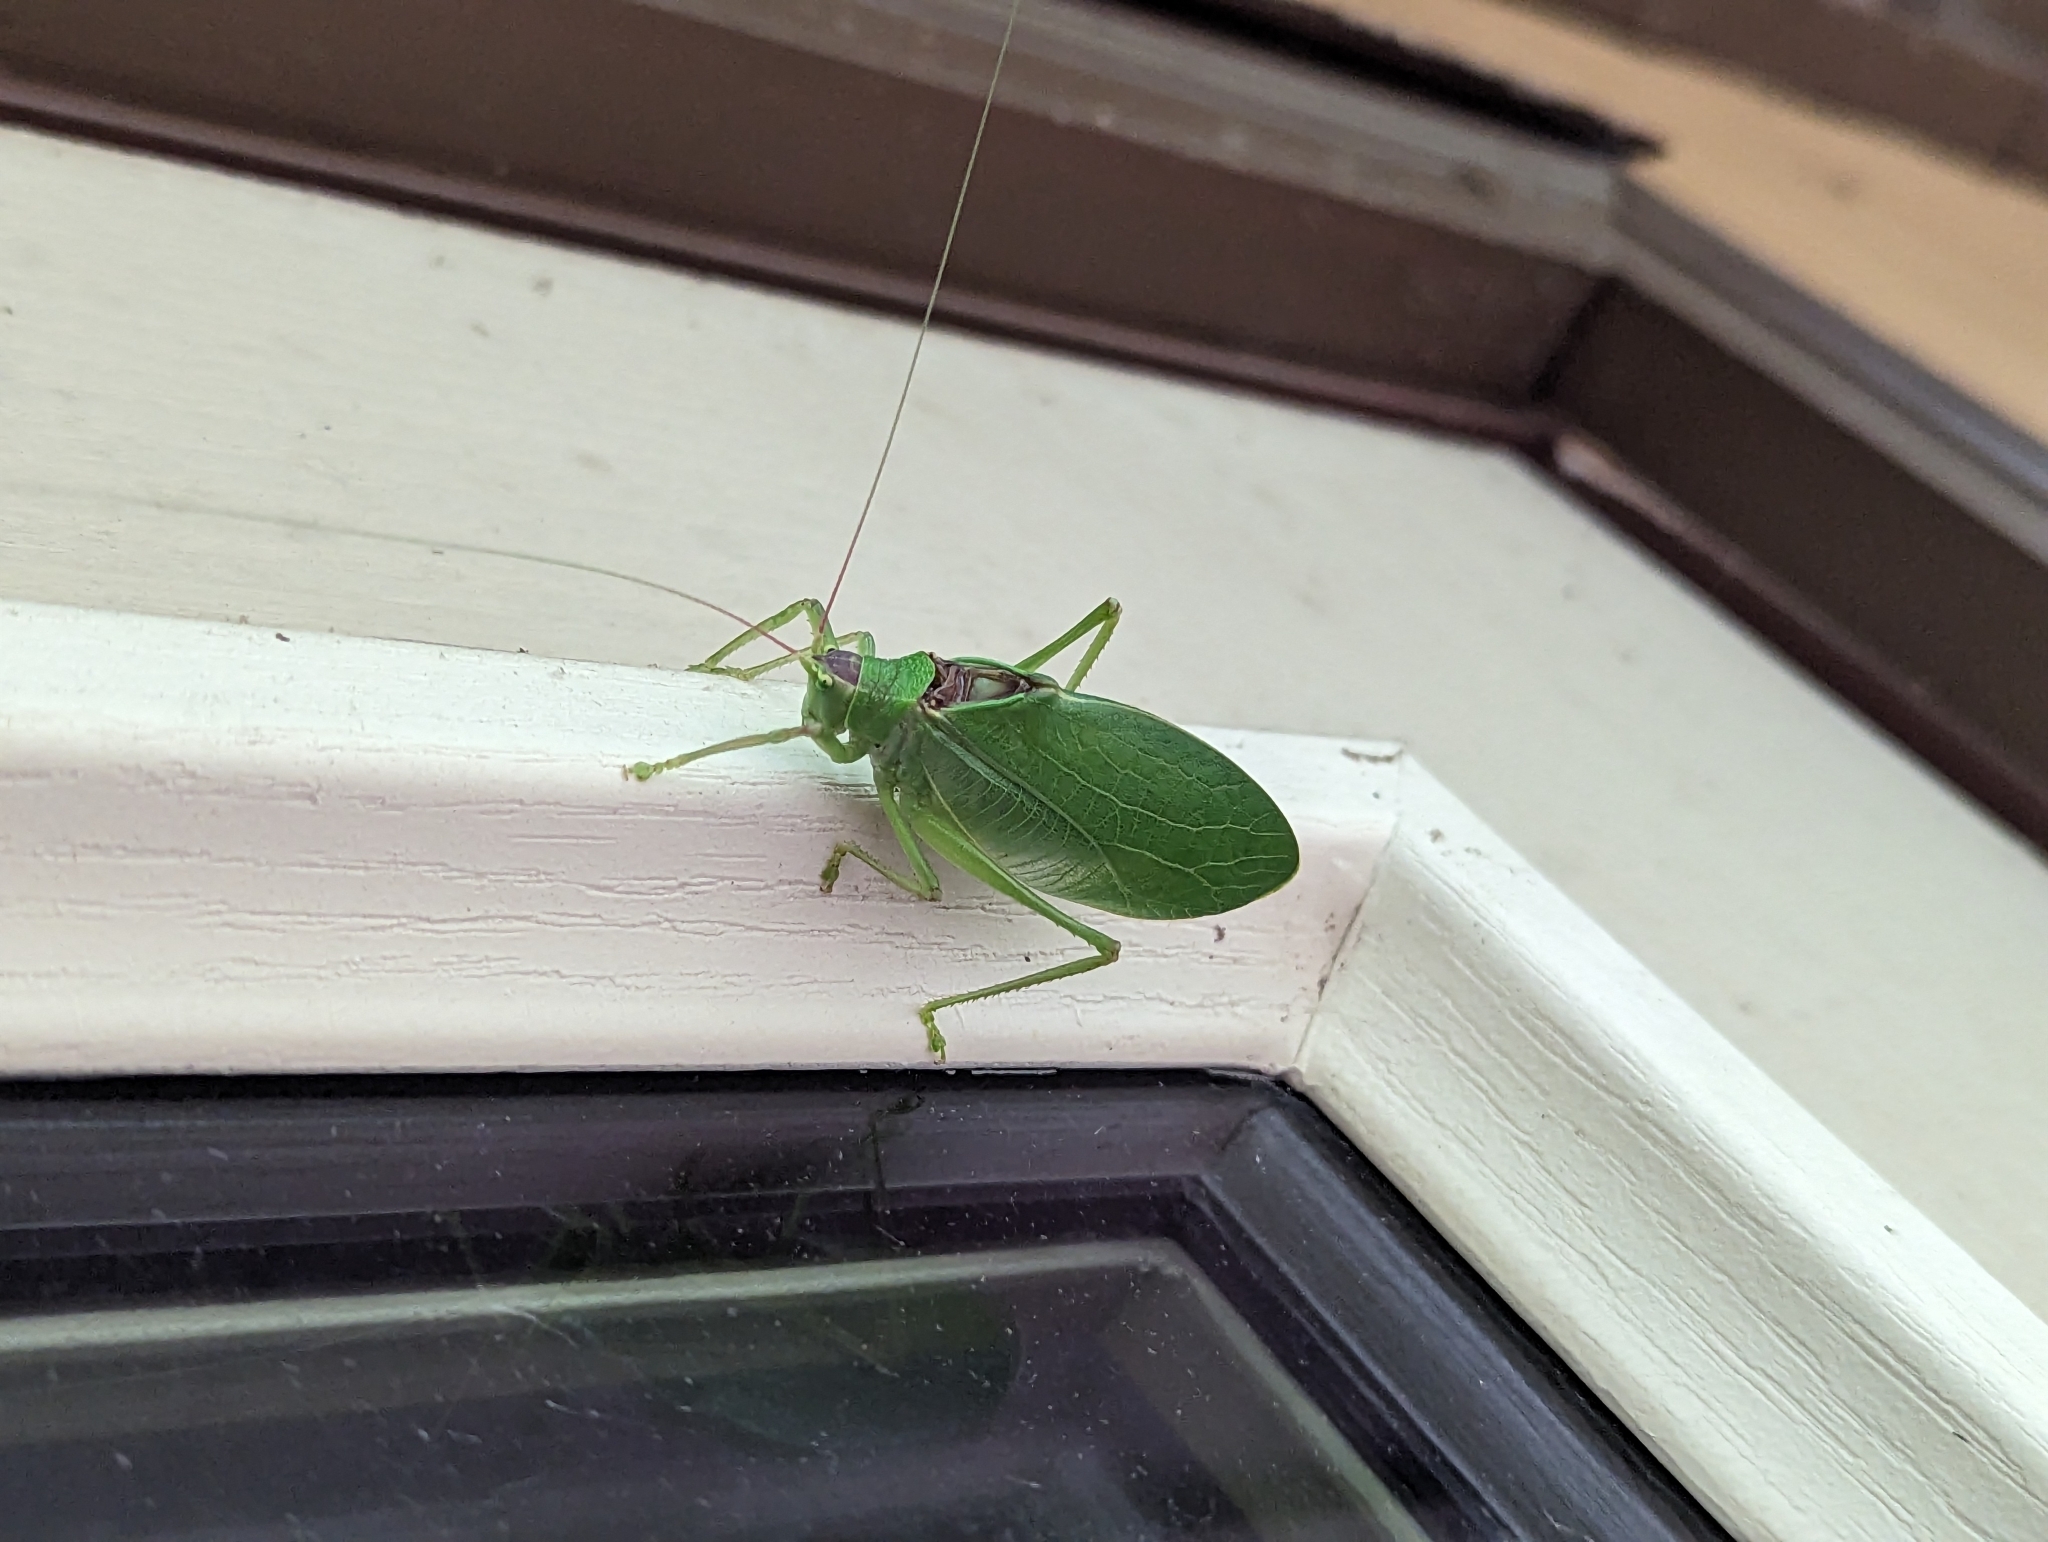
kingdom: Animalia
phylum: Arthropoda
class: Insecta
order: Orthoptera
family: Tettigoniidae
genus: Pterophylla
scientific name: Pterophylla camellifolia
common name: Common true katydid
